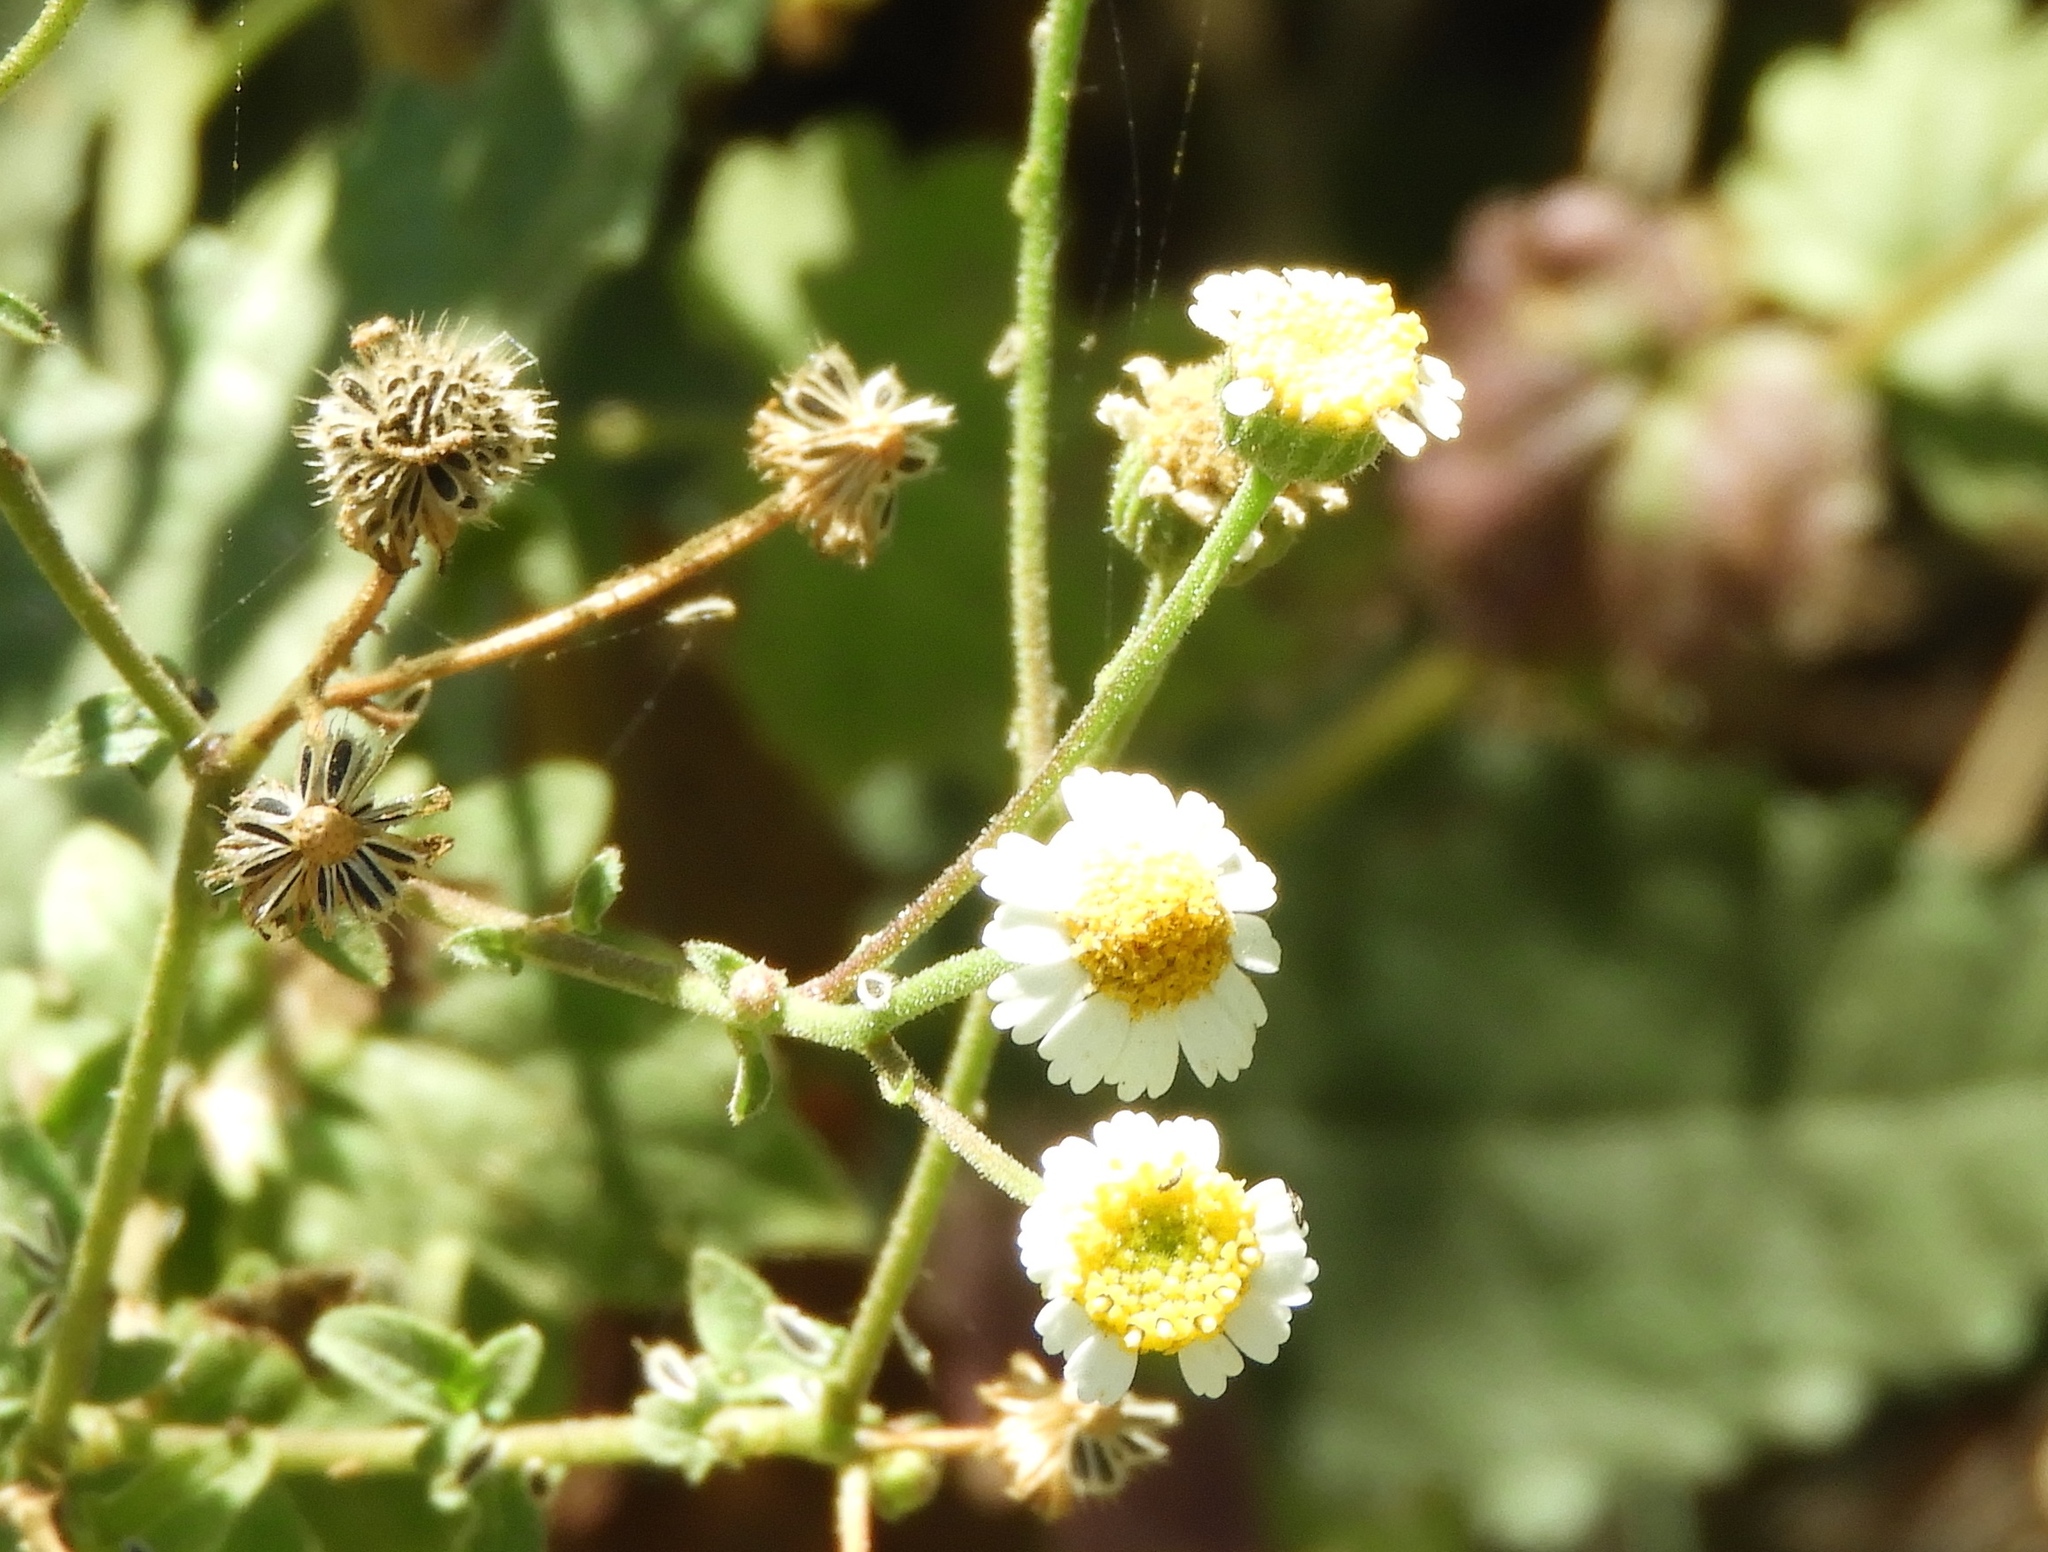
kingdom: Plantae
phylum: Tracheophyta
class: Magnoliopsida
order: Asterales
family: Asteraceae
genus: Galinsogeopsis
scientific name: Galinsogeopsis spilanthoides
